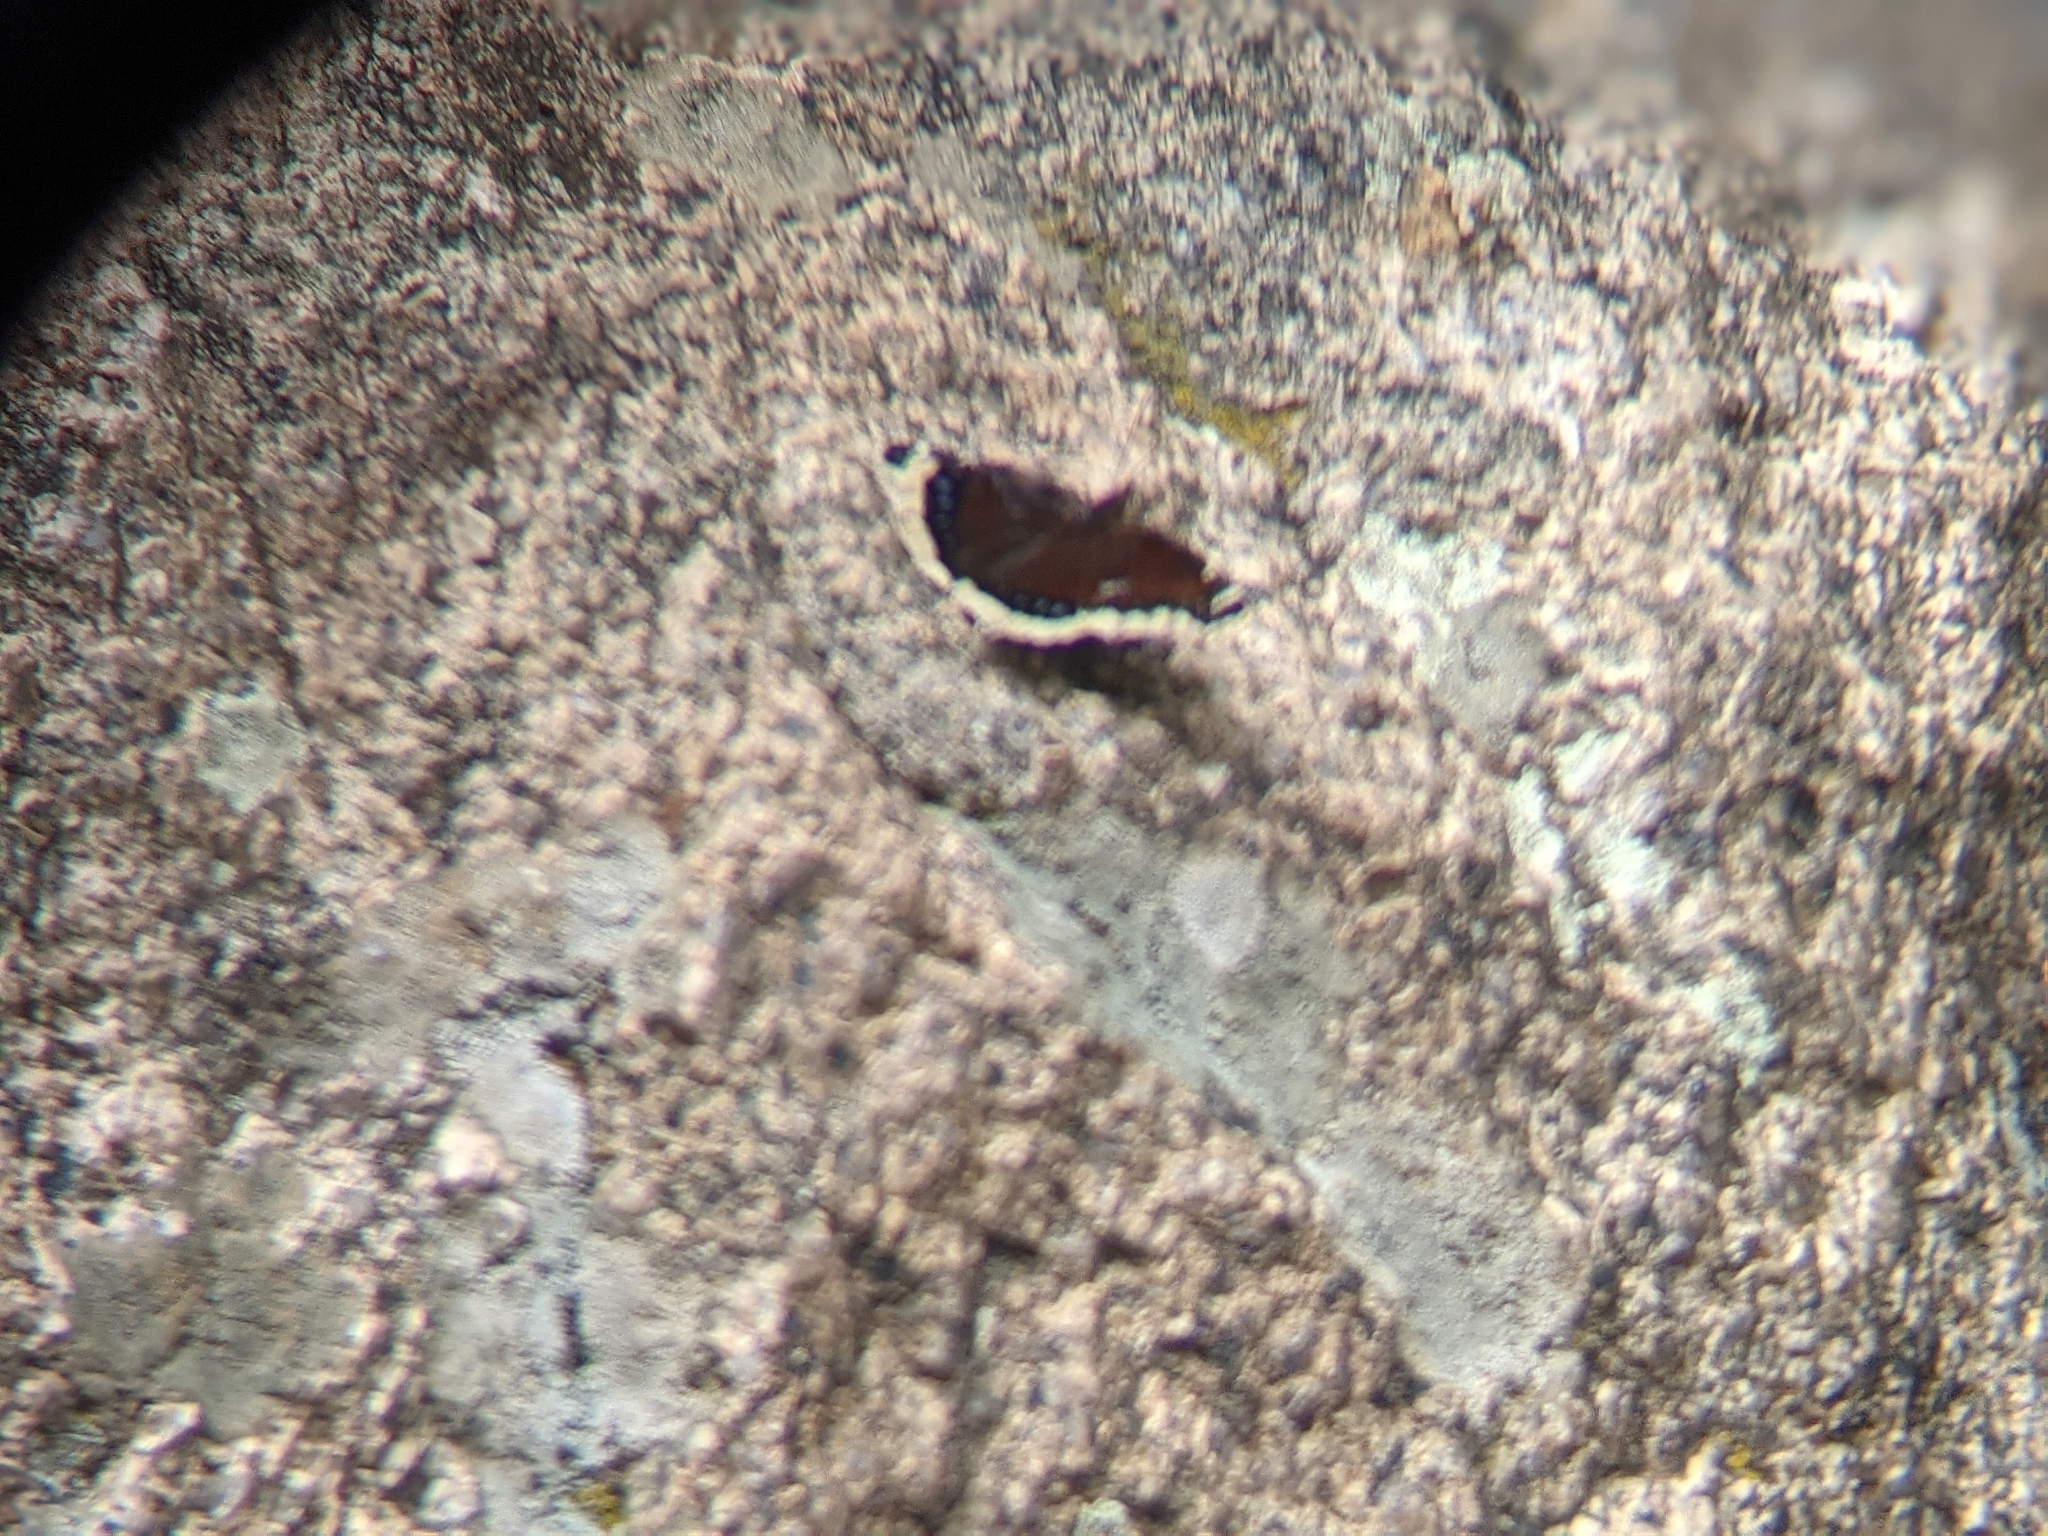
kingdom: Animalia
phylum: Arthropoda
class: Insecta
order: Lepidoptera
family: Nymphalidae
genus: Nymphalis
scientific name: Nymphalis antiopa
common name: Camberwell beauty
